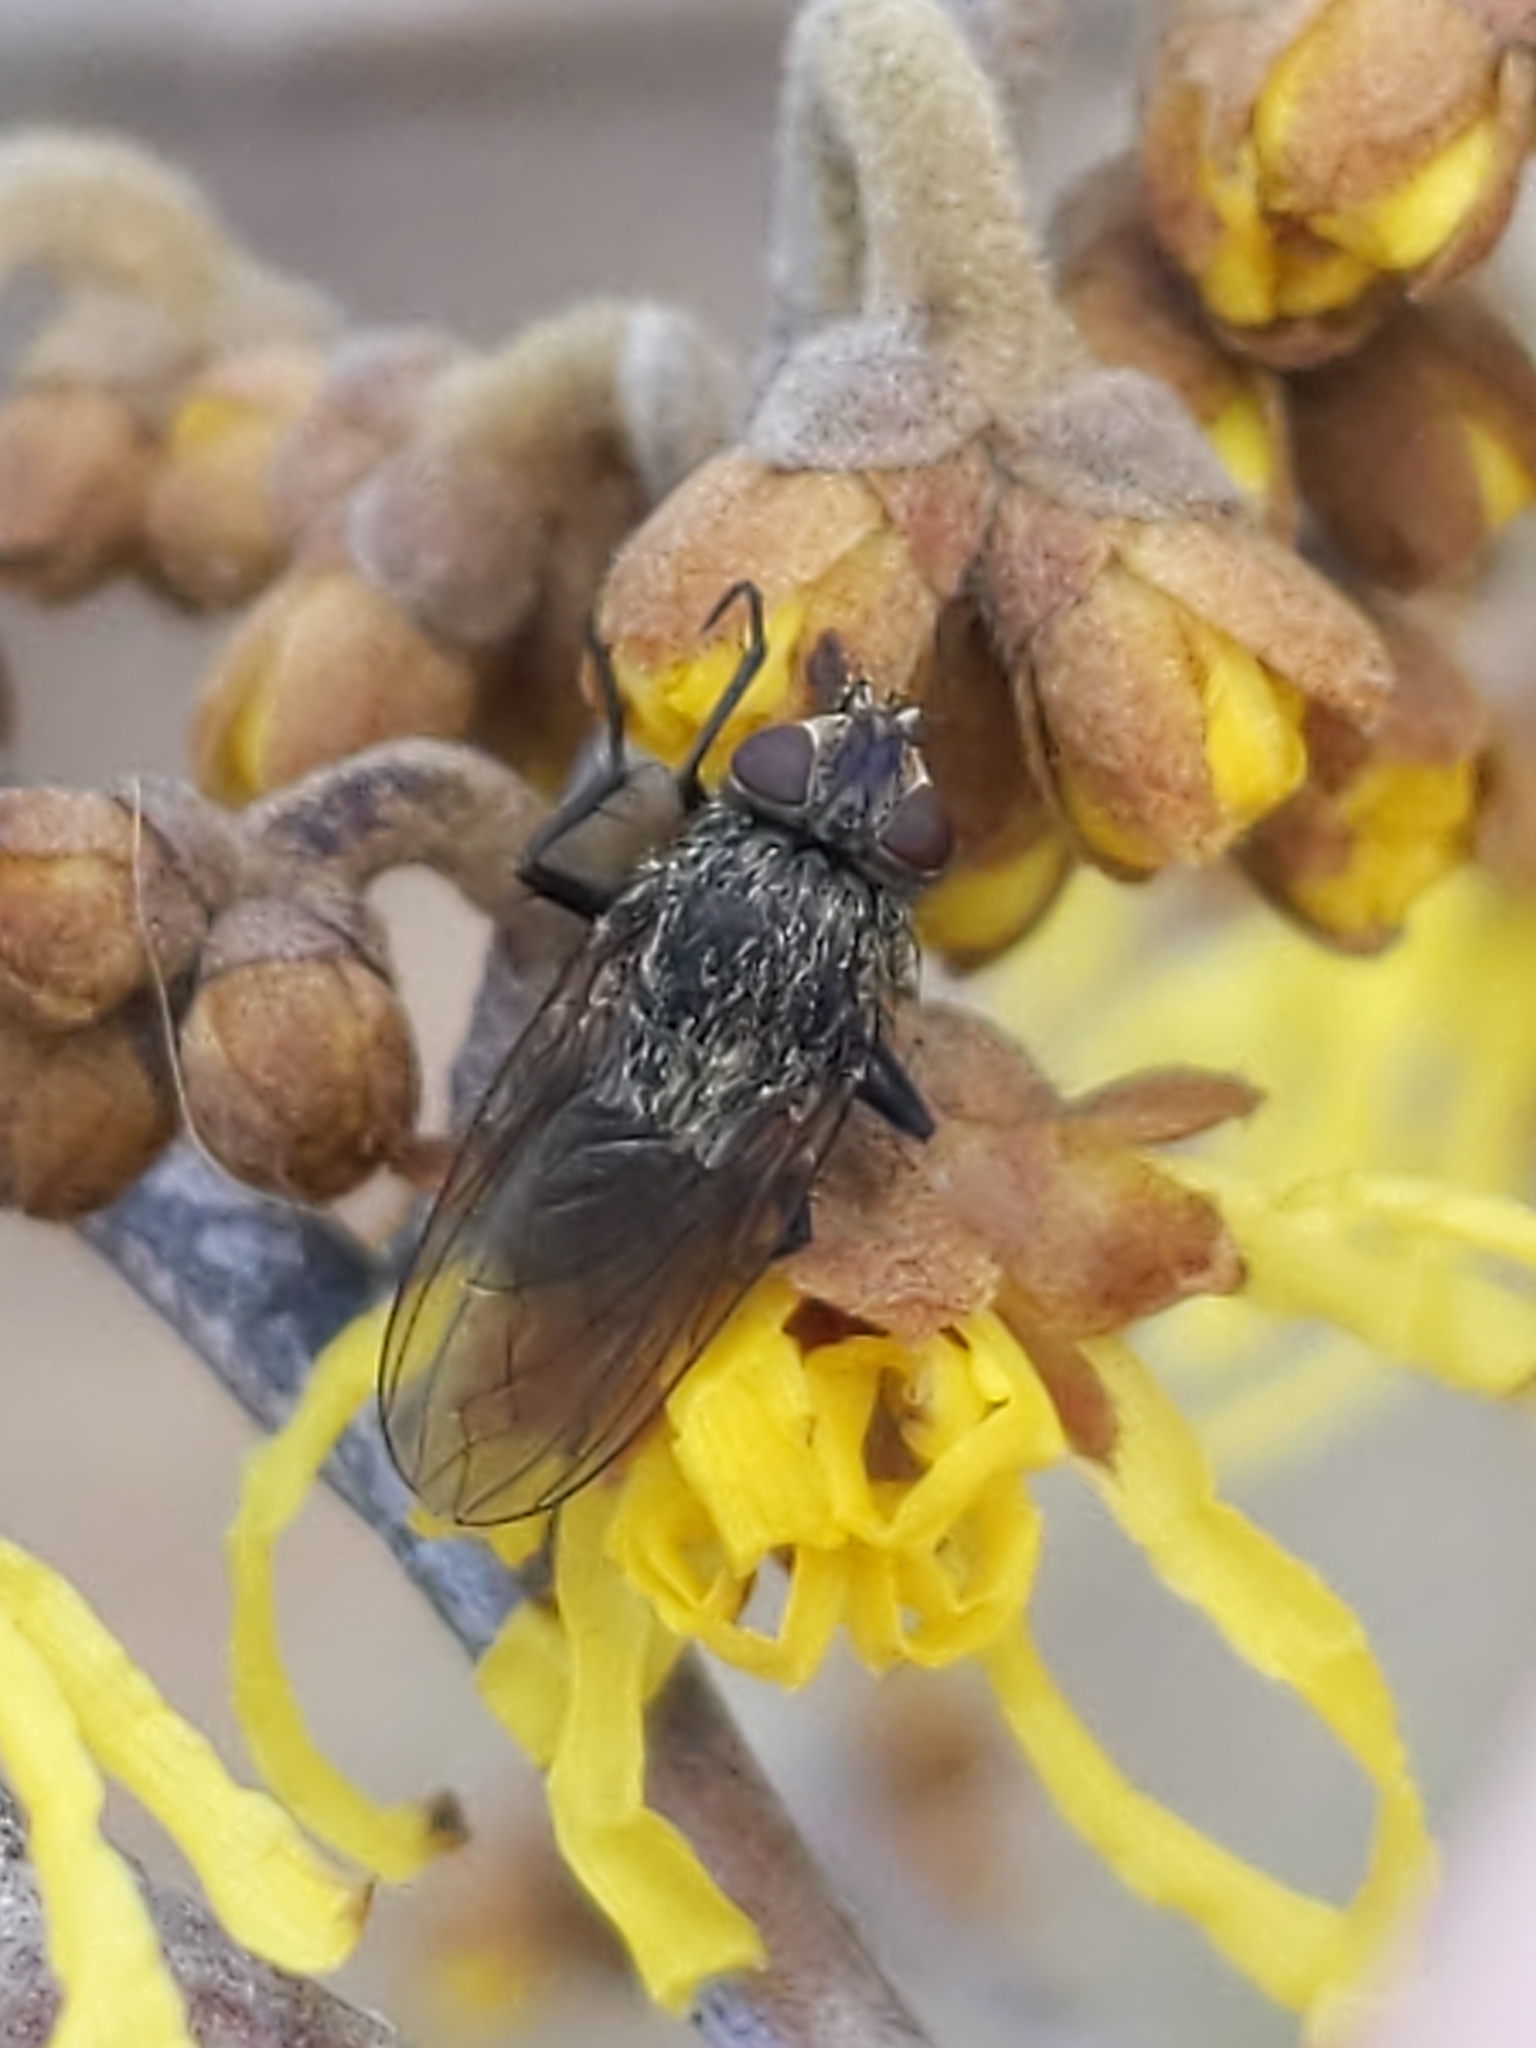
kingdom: Animalia
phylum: Arthropoda
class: Insecta
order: Diptera
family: Polleniidae
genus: Pollenia
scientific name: Pollenia
